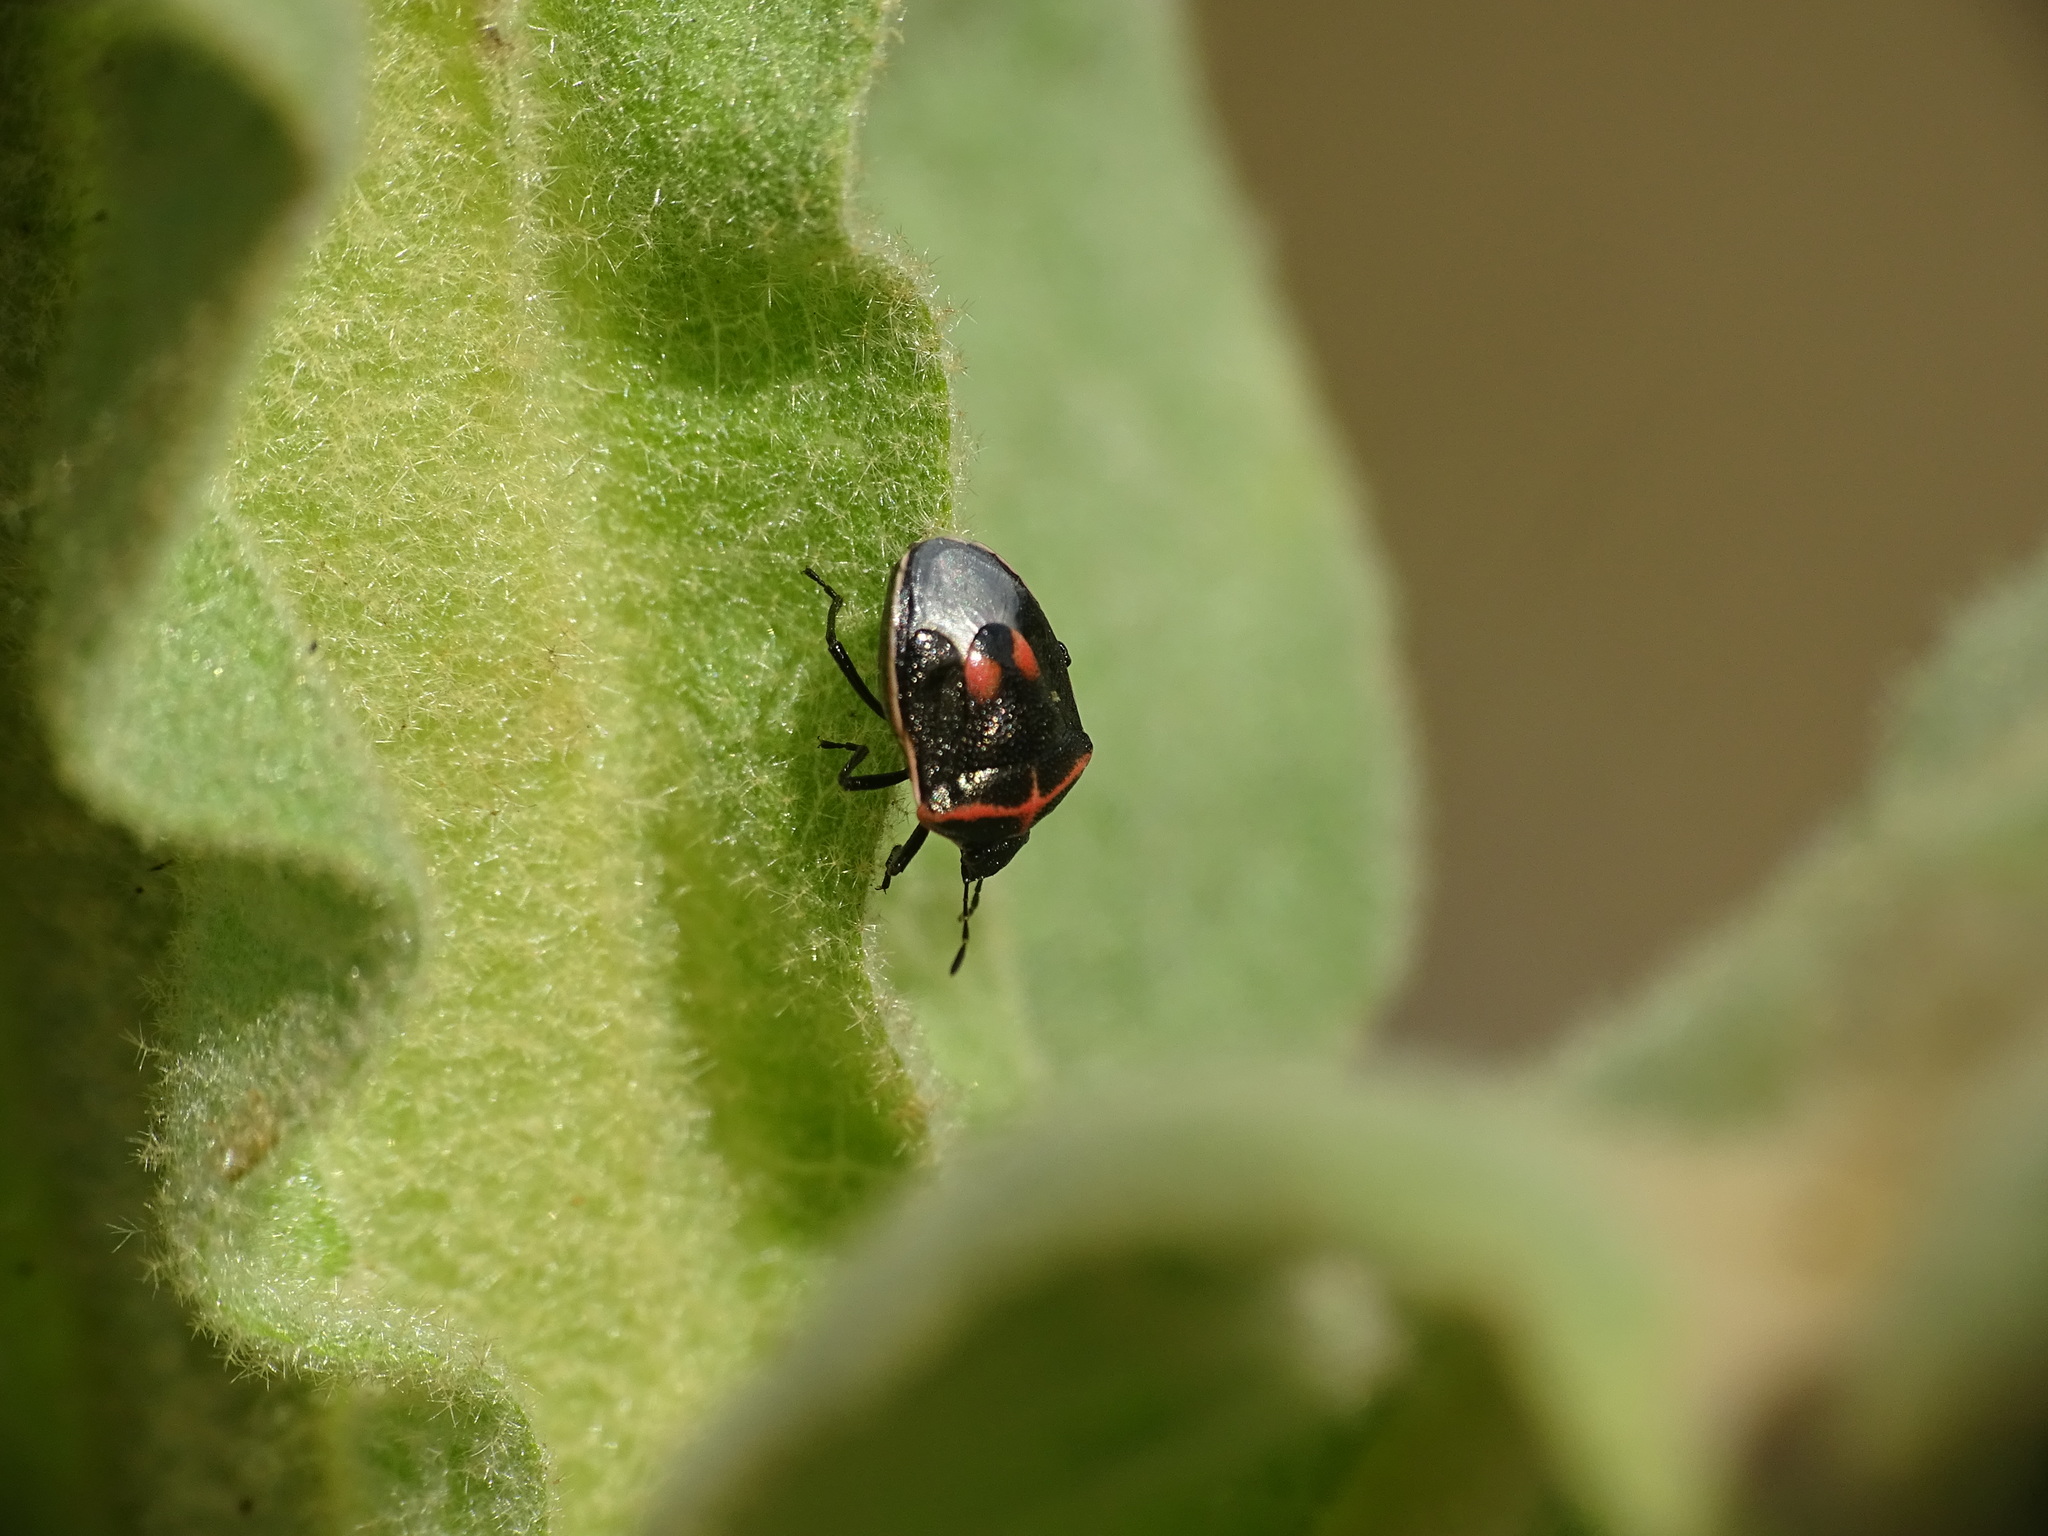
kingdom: Animalia
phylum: Arthropoda
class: Insecta
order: Hemiptera
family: Pentatomidae
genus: Cosmopepla
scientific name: Cosmopepla lintneriana
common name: Twice-stabbed stink bug
